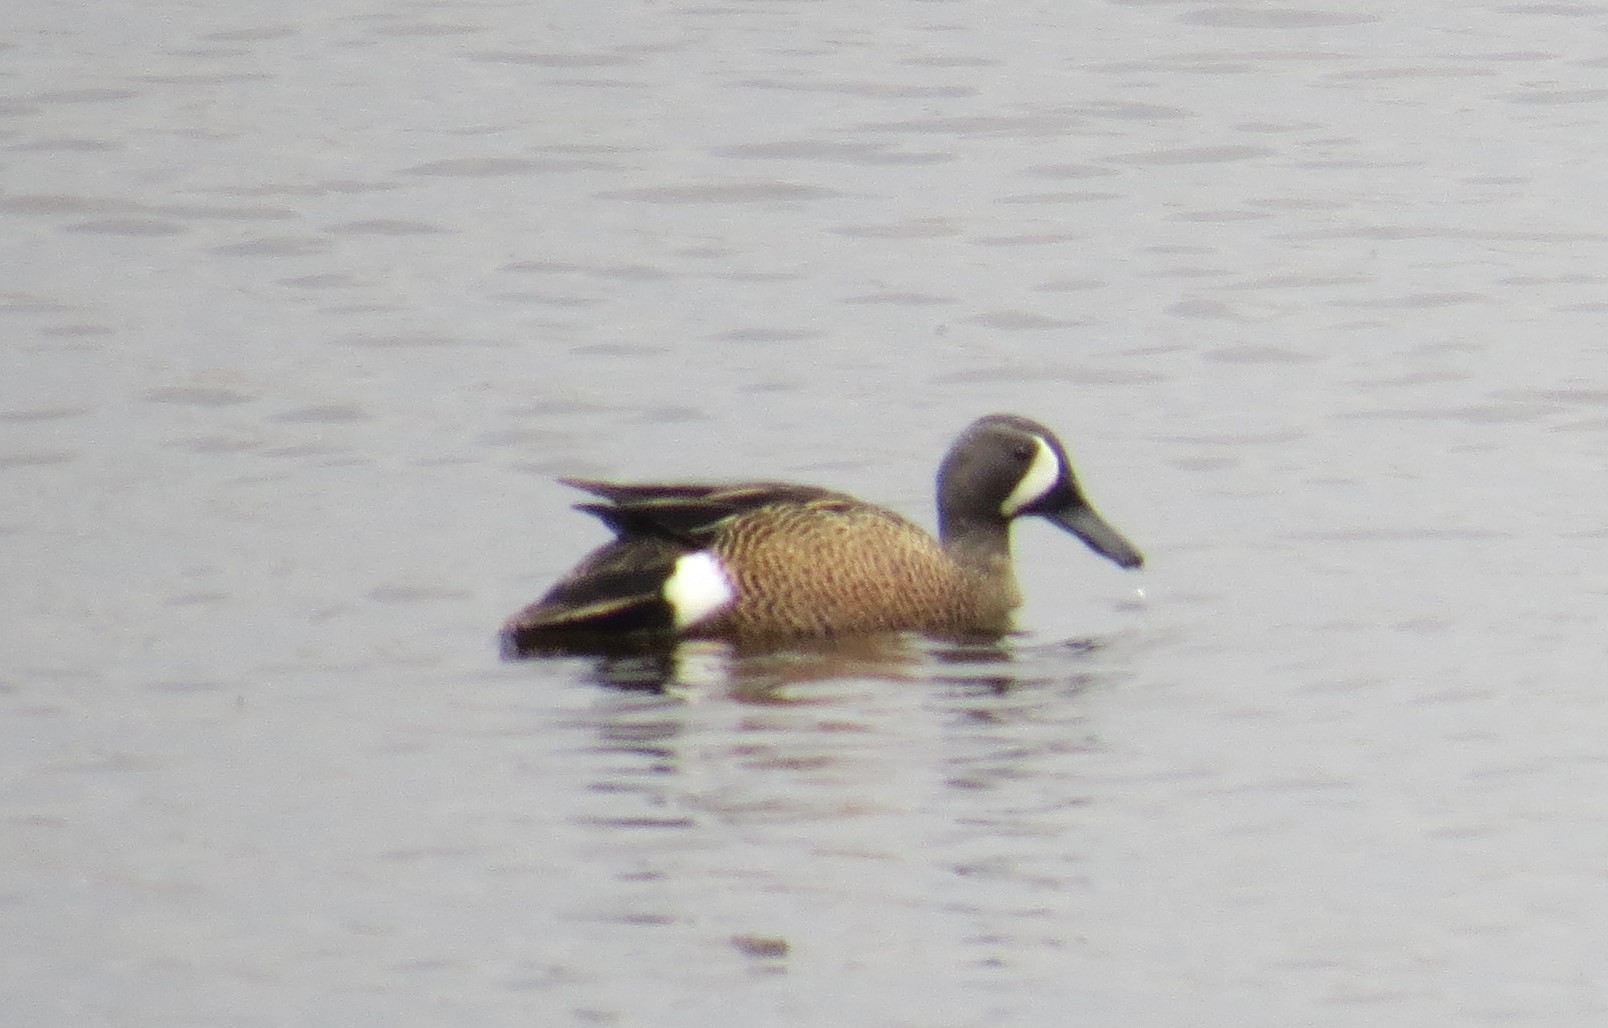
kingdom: Animalia
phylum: Chordata
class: Aves
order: Anseriformes
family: Anatidae
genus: Spatula
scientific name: Spatula discors
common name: Blue-winged teal
